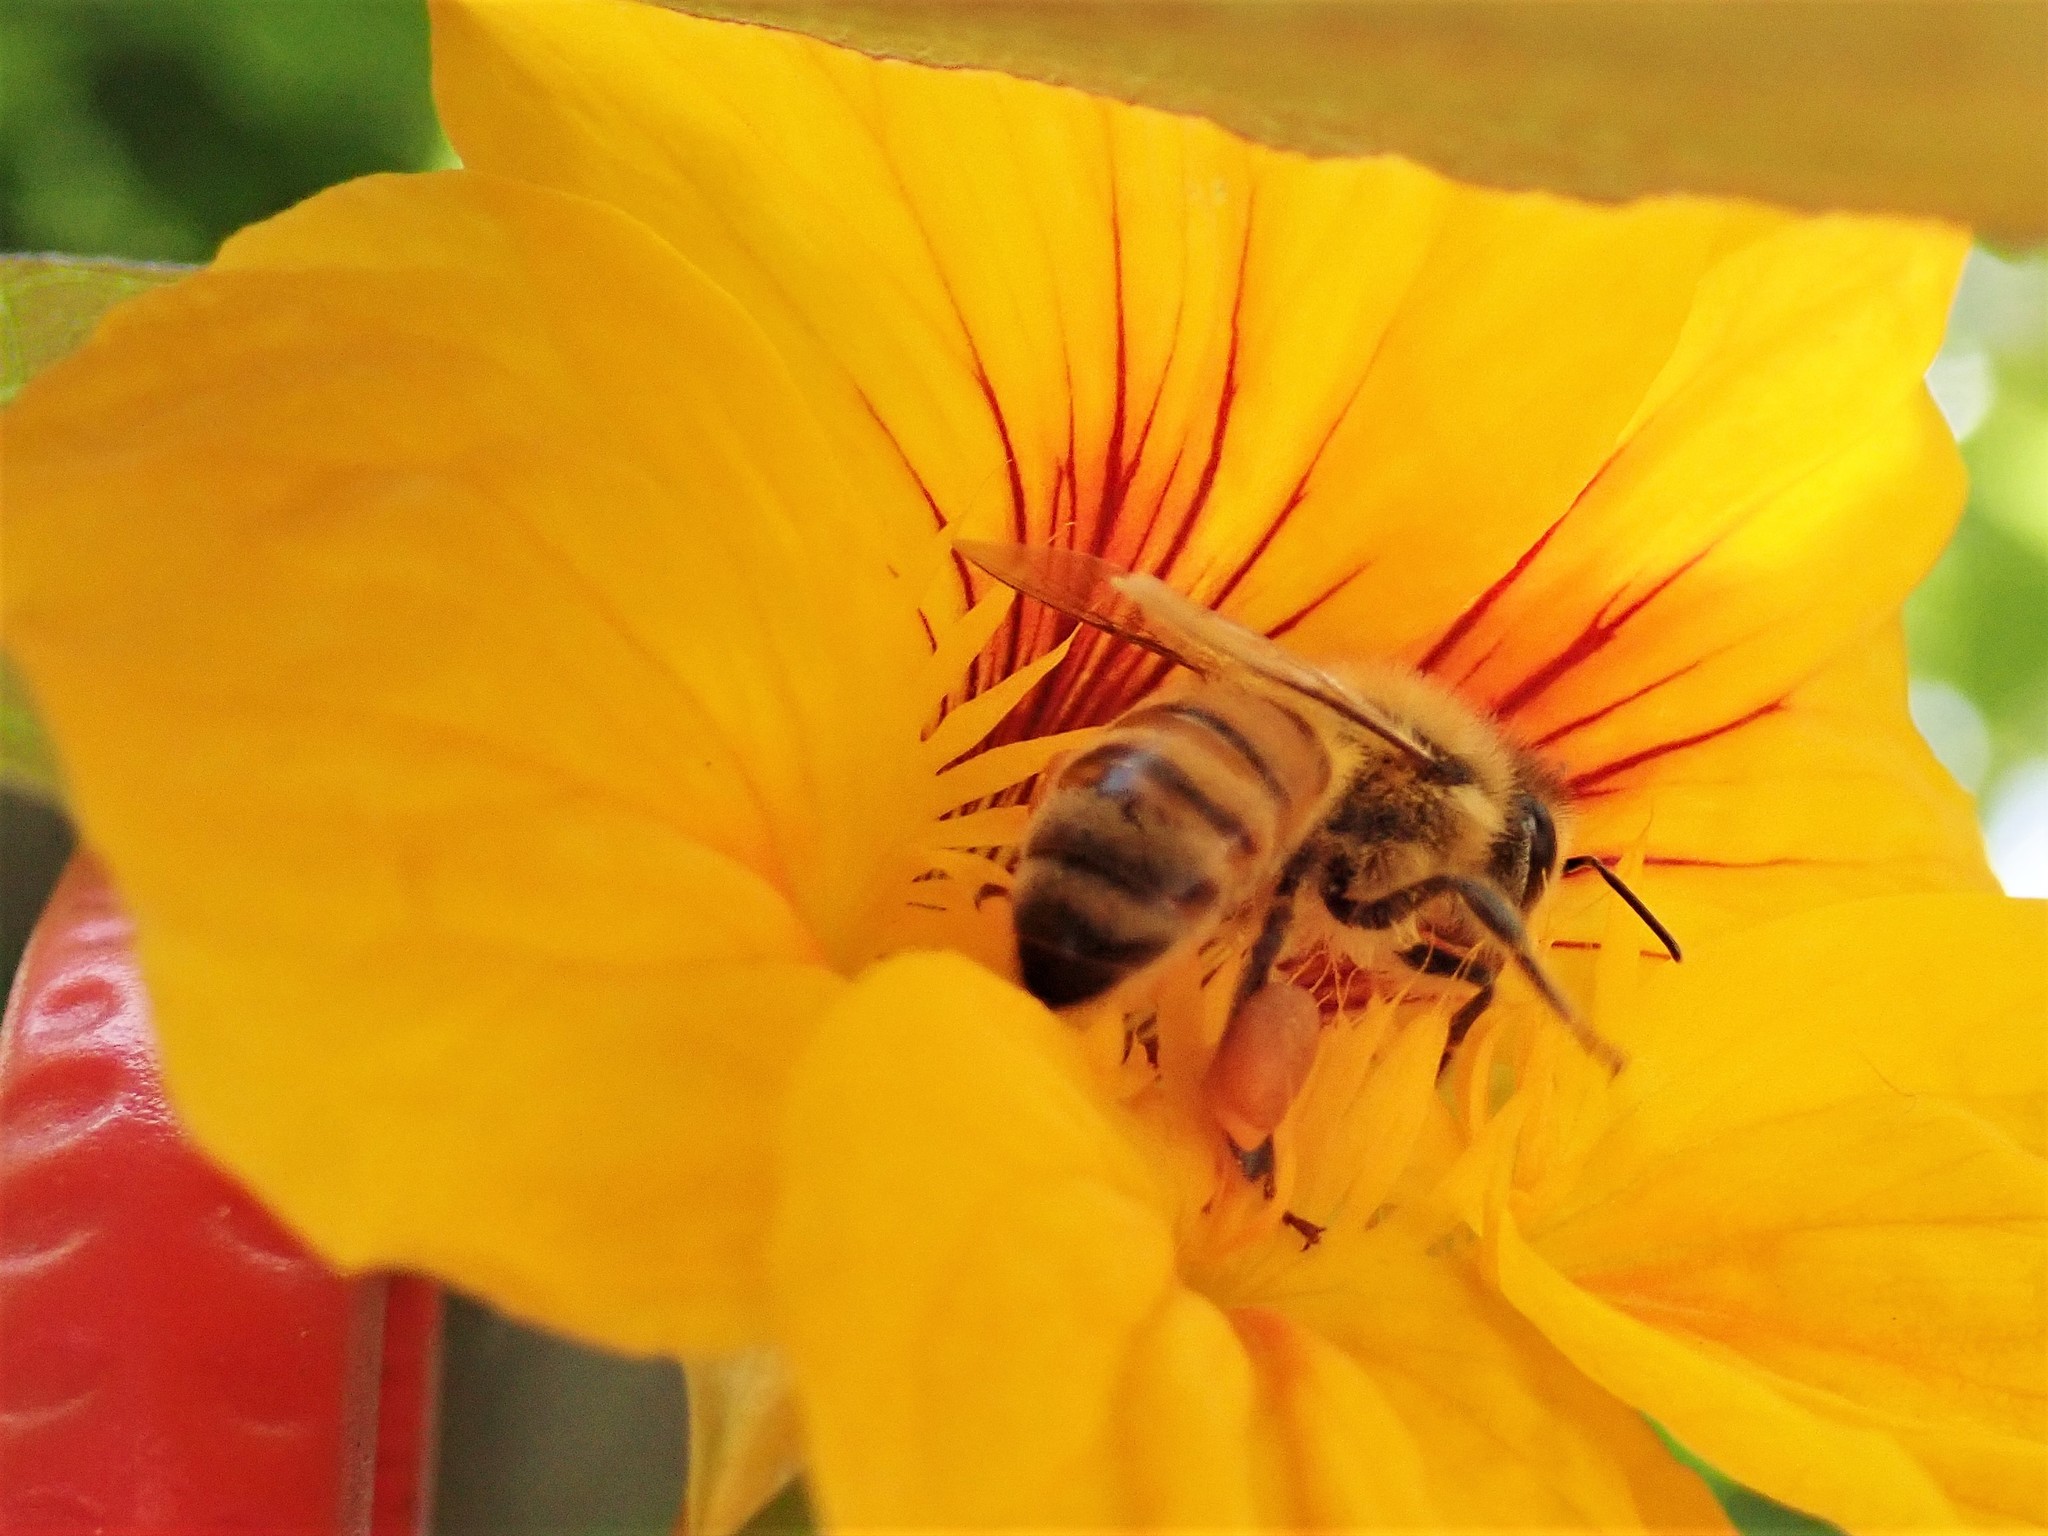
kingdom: Animalia
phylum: Arthropoda
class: Insecta
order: Hymenoptera
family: Apidae
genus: Apis
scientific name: Apis mellifera
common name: Honey bee
